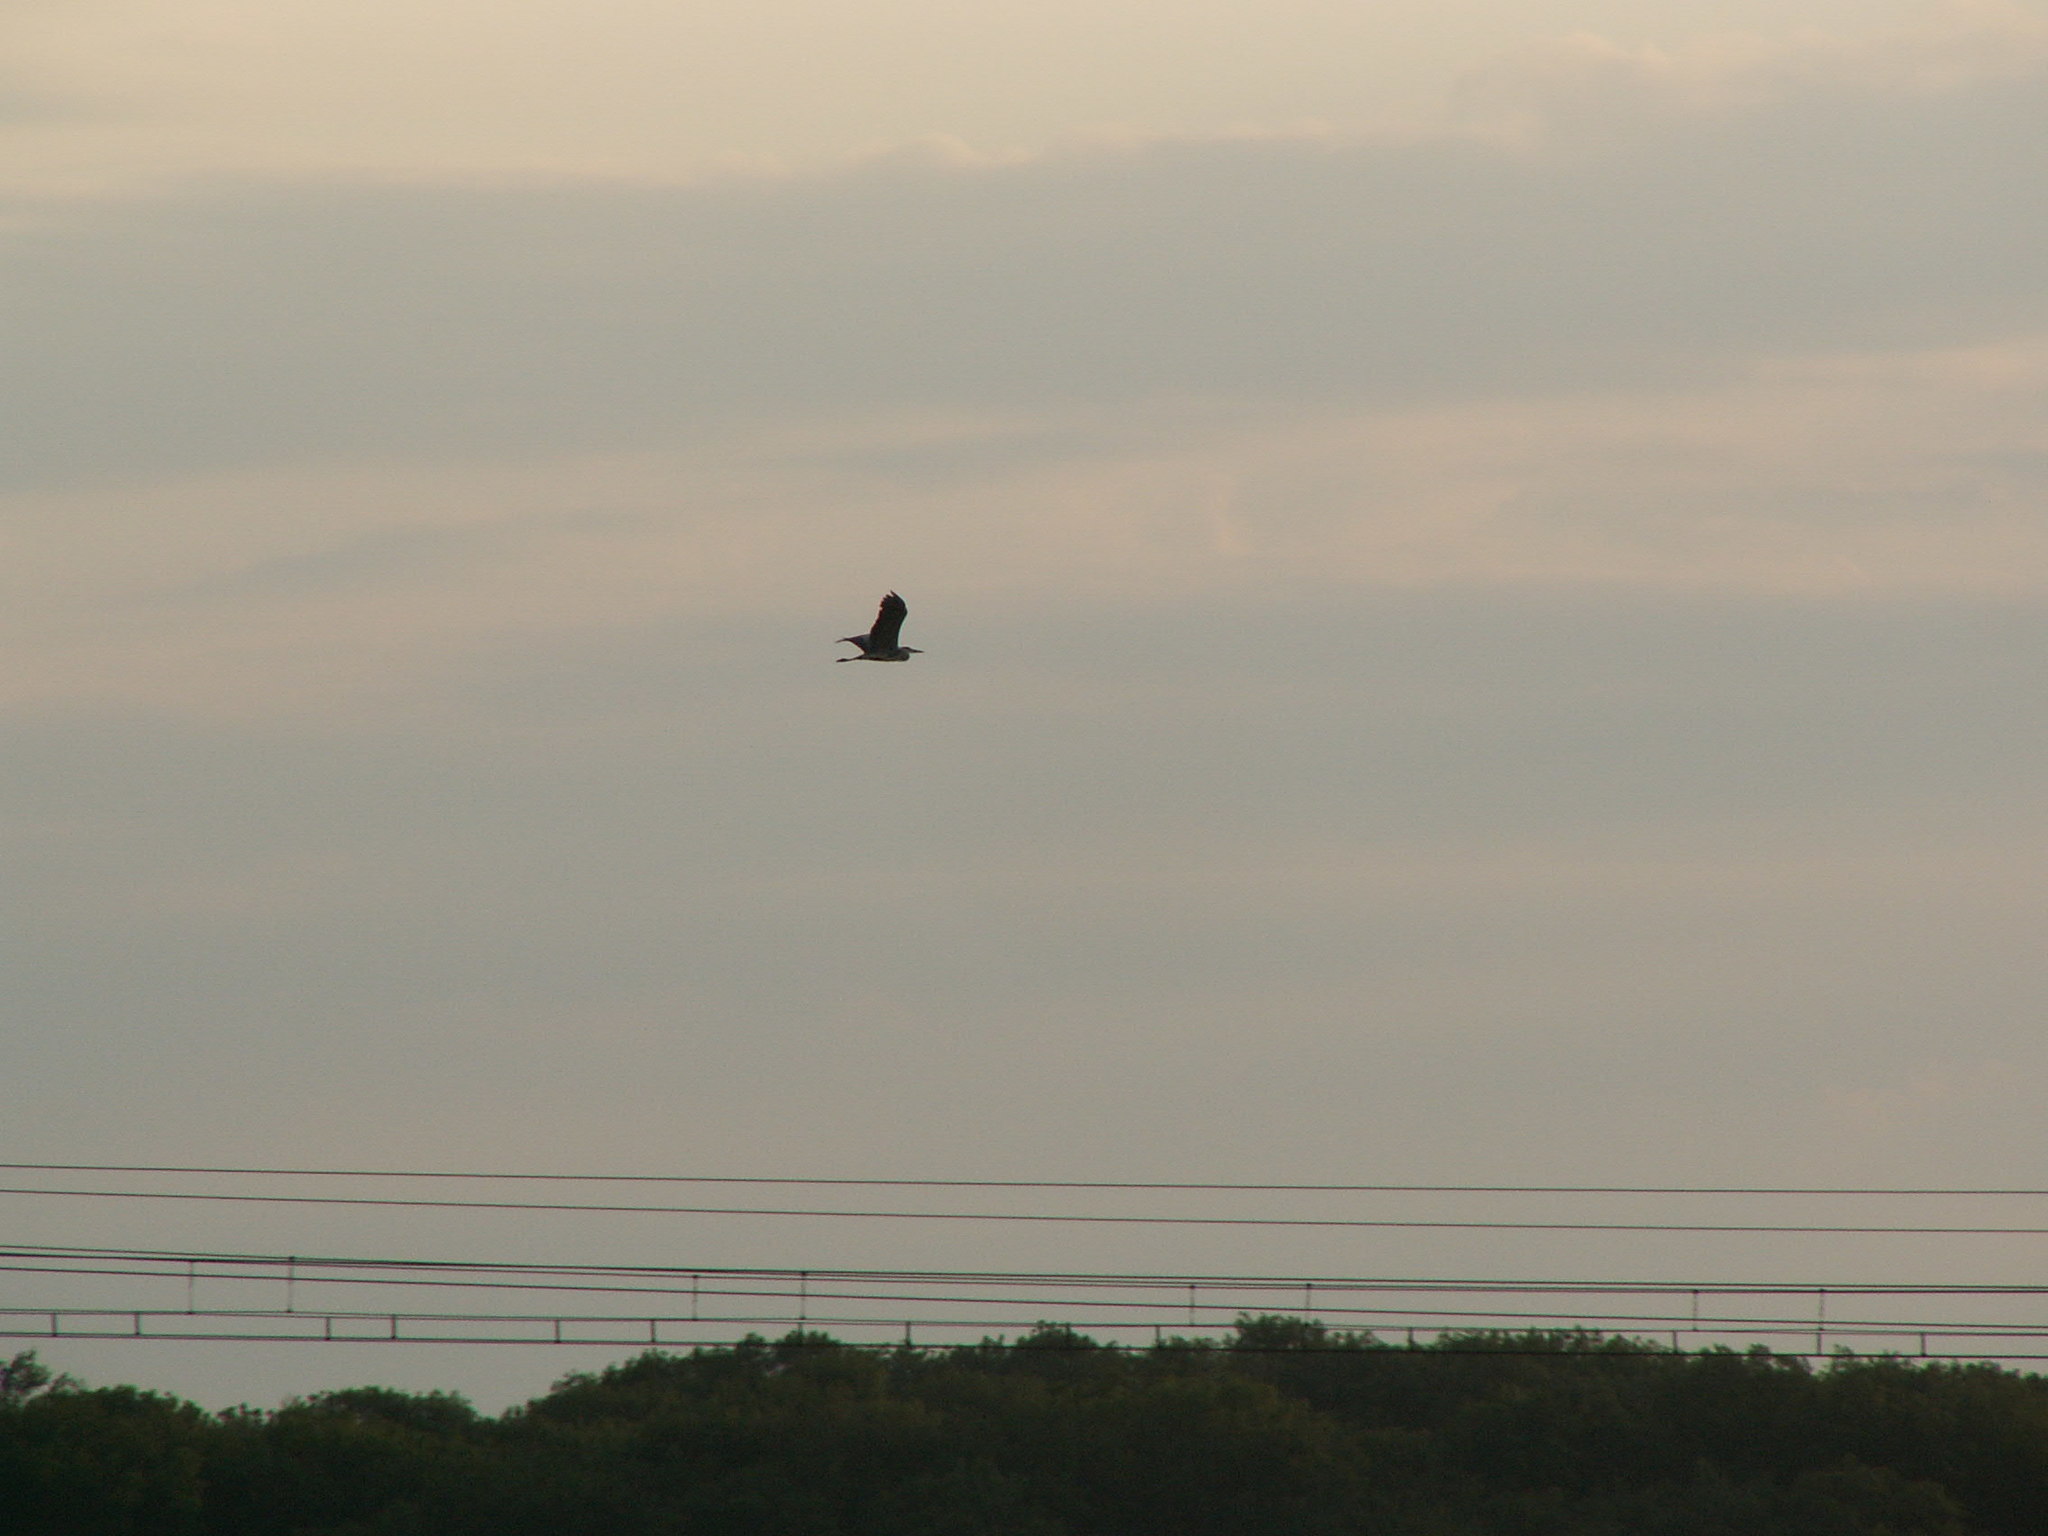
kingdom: Animalia
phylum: Chordata
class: Aves
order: Pelecaniformes
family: Ardeidae
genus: Ardea
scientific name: Ardea cinerea
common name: Grey heron
